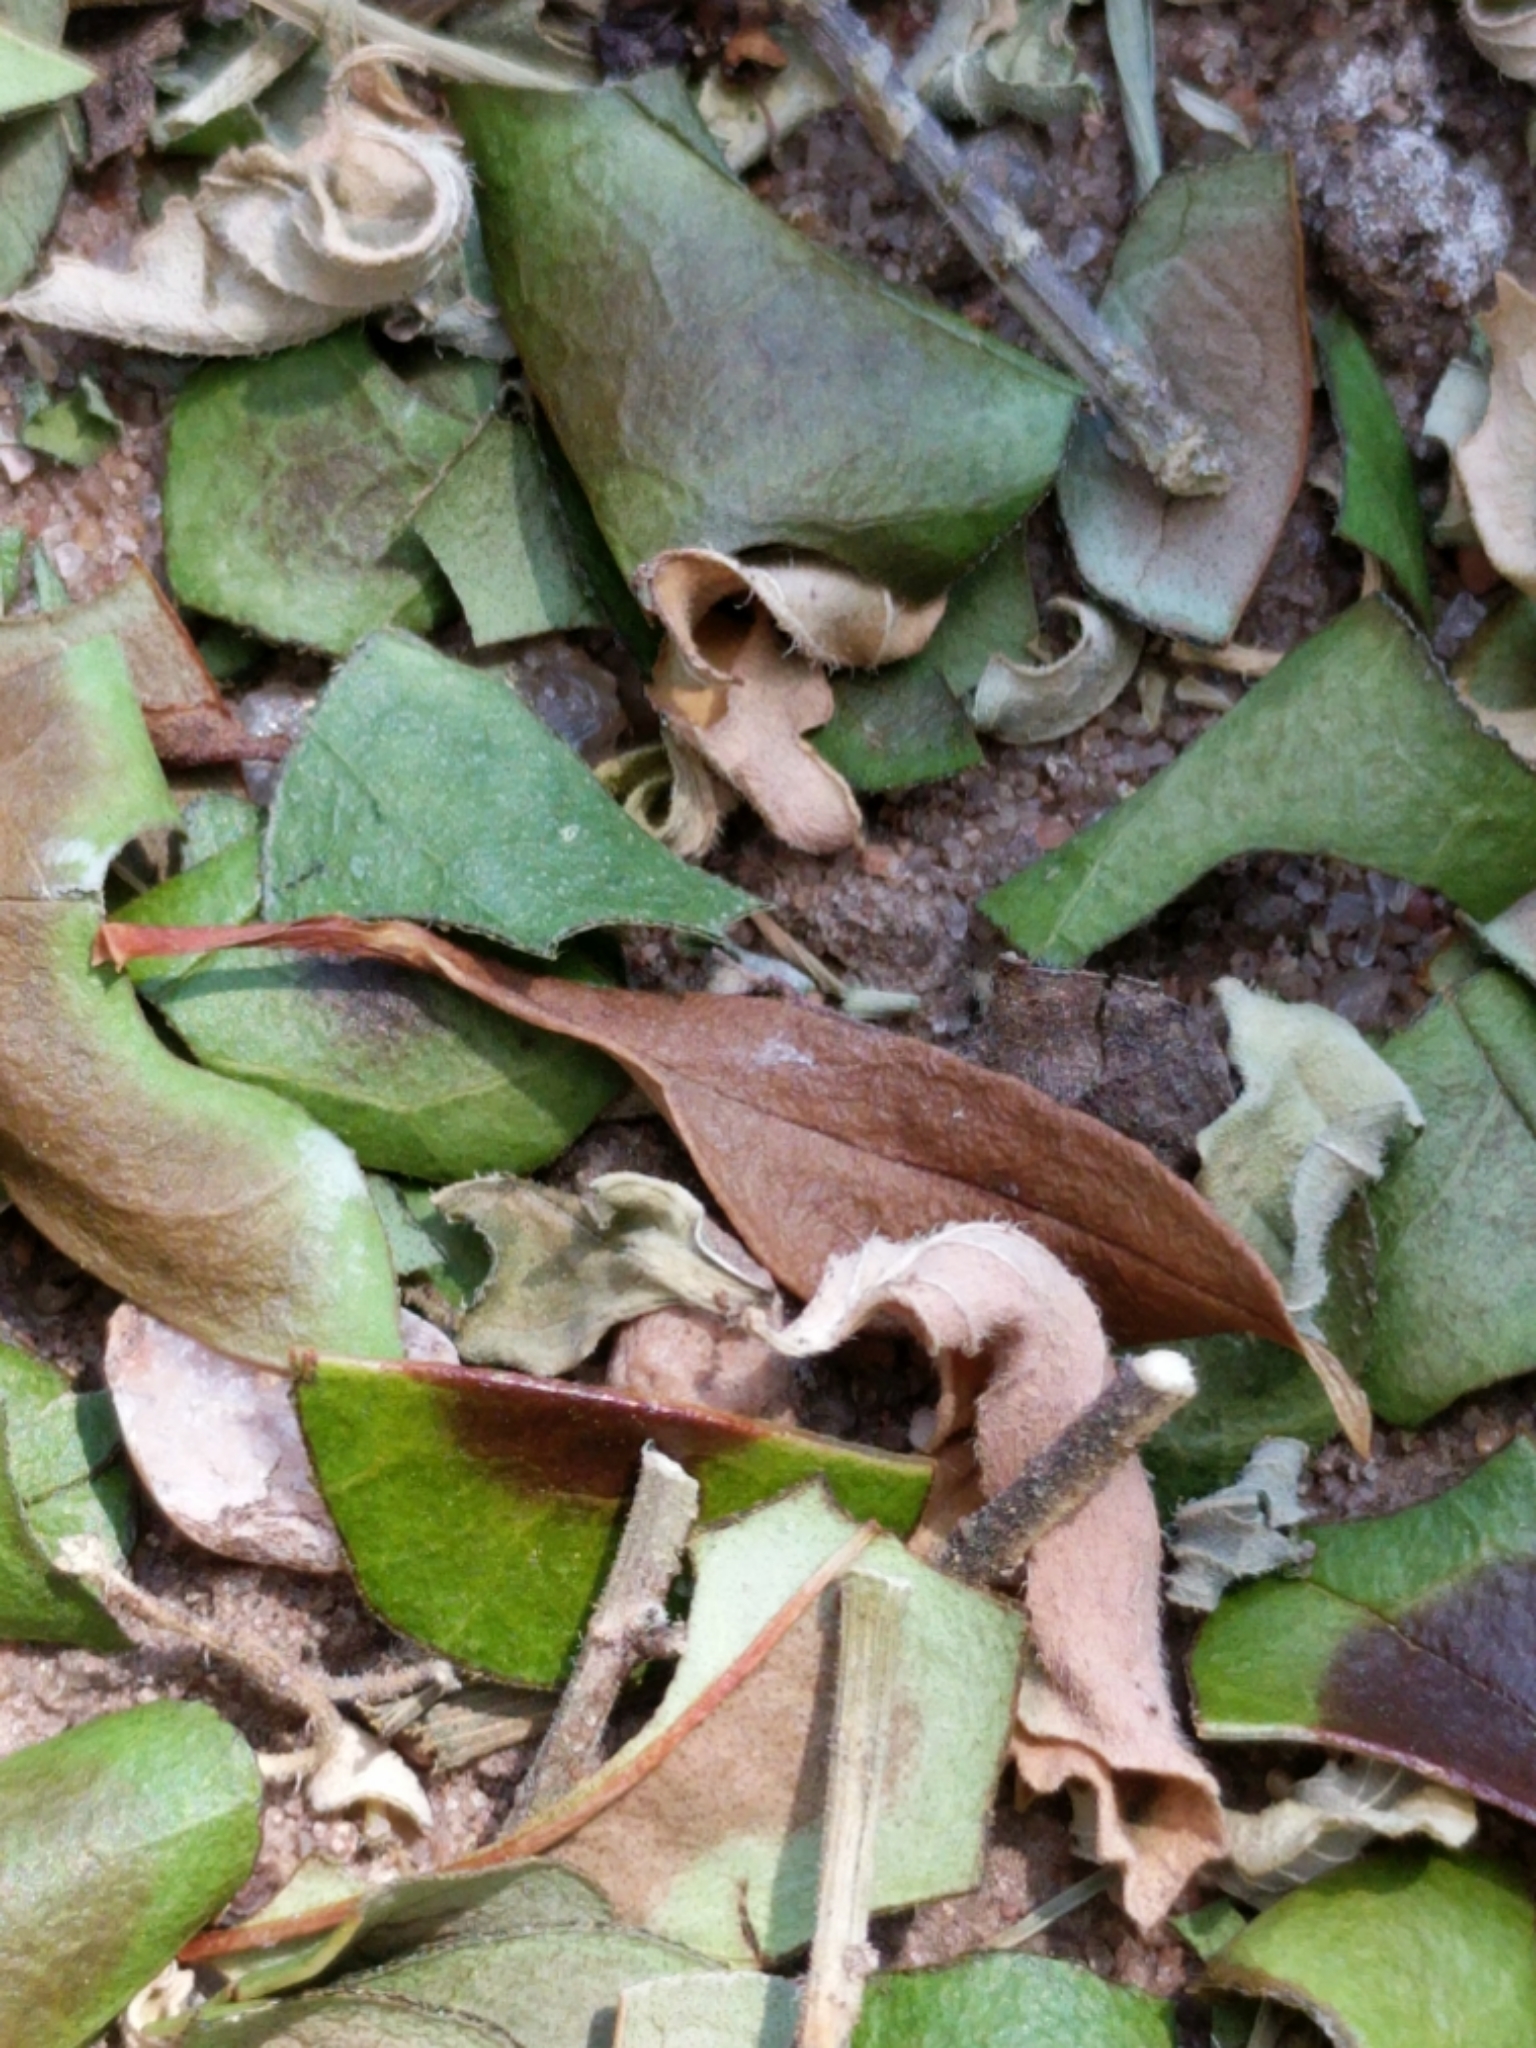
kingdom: Animalia
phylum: Arthropoda
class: Insecta
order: Hymenoptera
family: Formicidae
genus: Atta
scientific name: Atta texana
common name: Texas leafcutting ant
